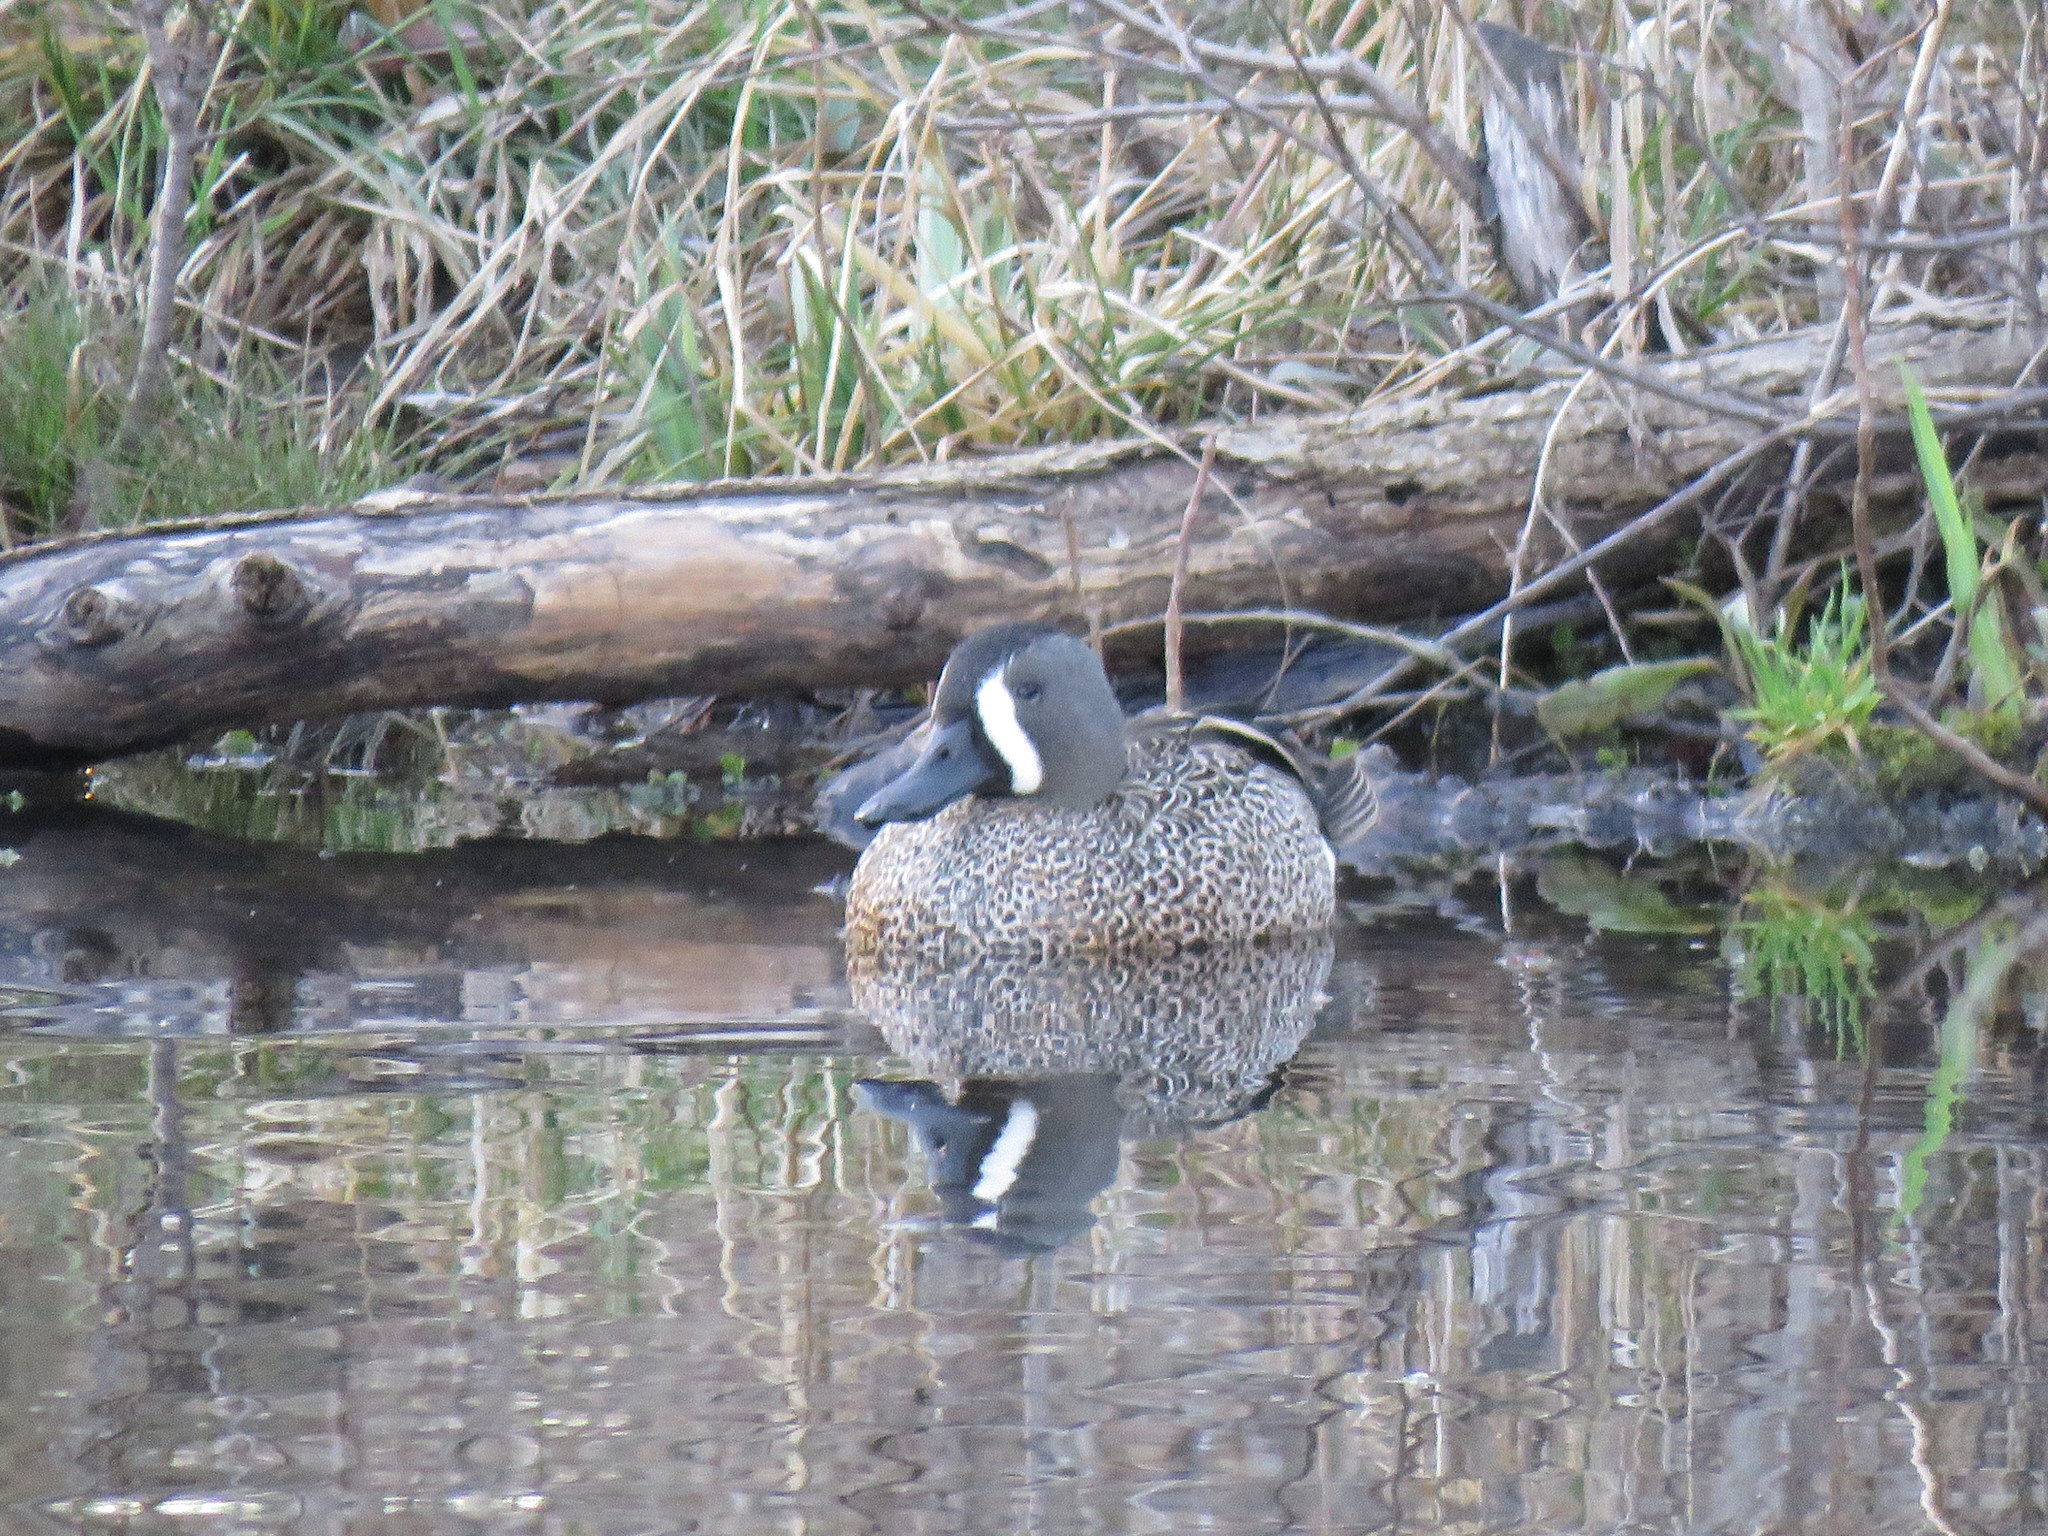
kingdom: Animalia
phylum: Chordata
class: Aves
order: Anseriformes
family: Anatidae
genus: Spatula
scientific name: Spatula discors
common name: Blue-winged teal
